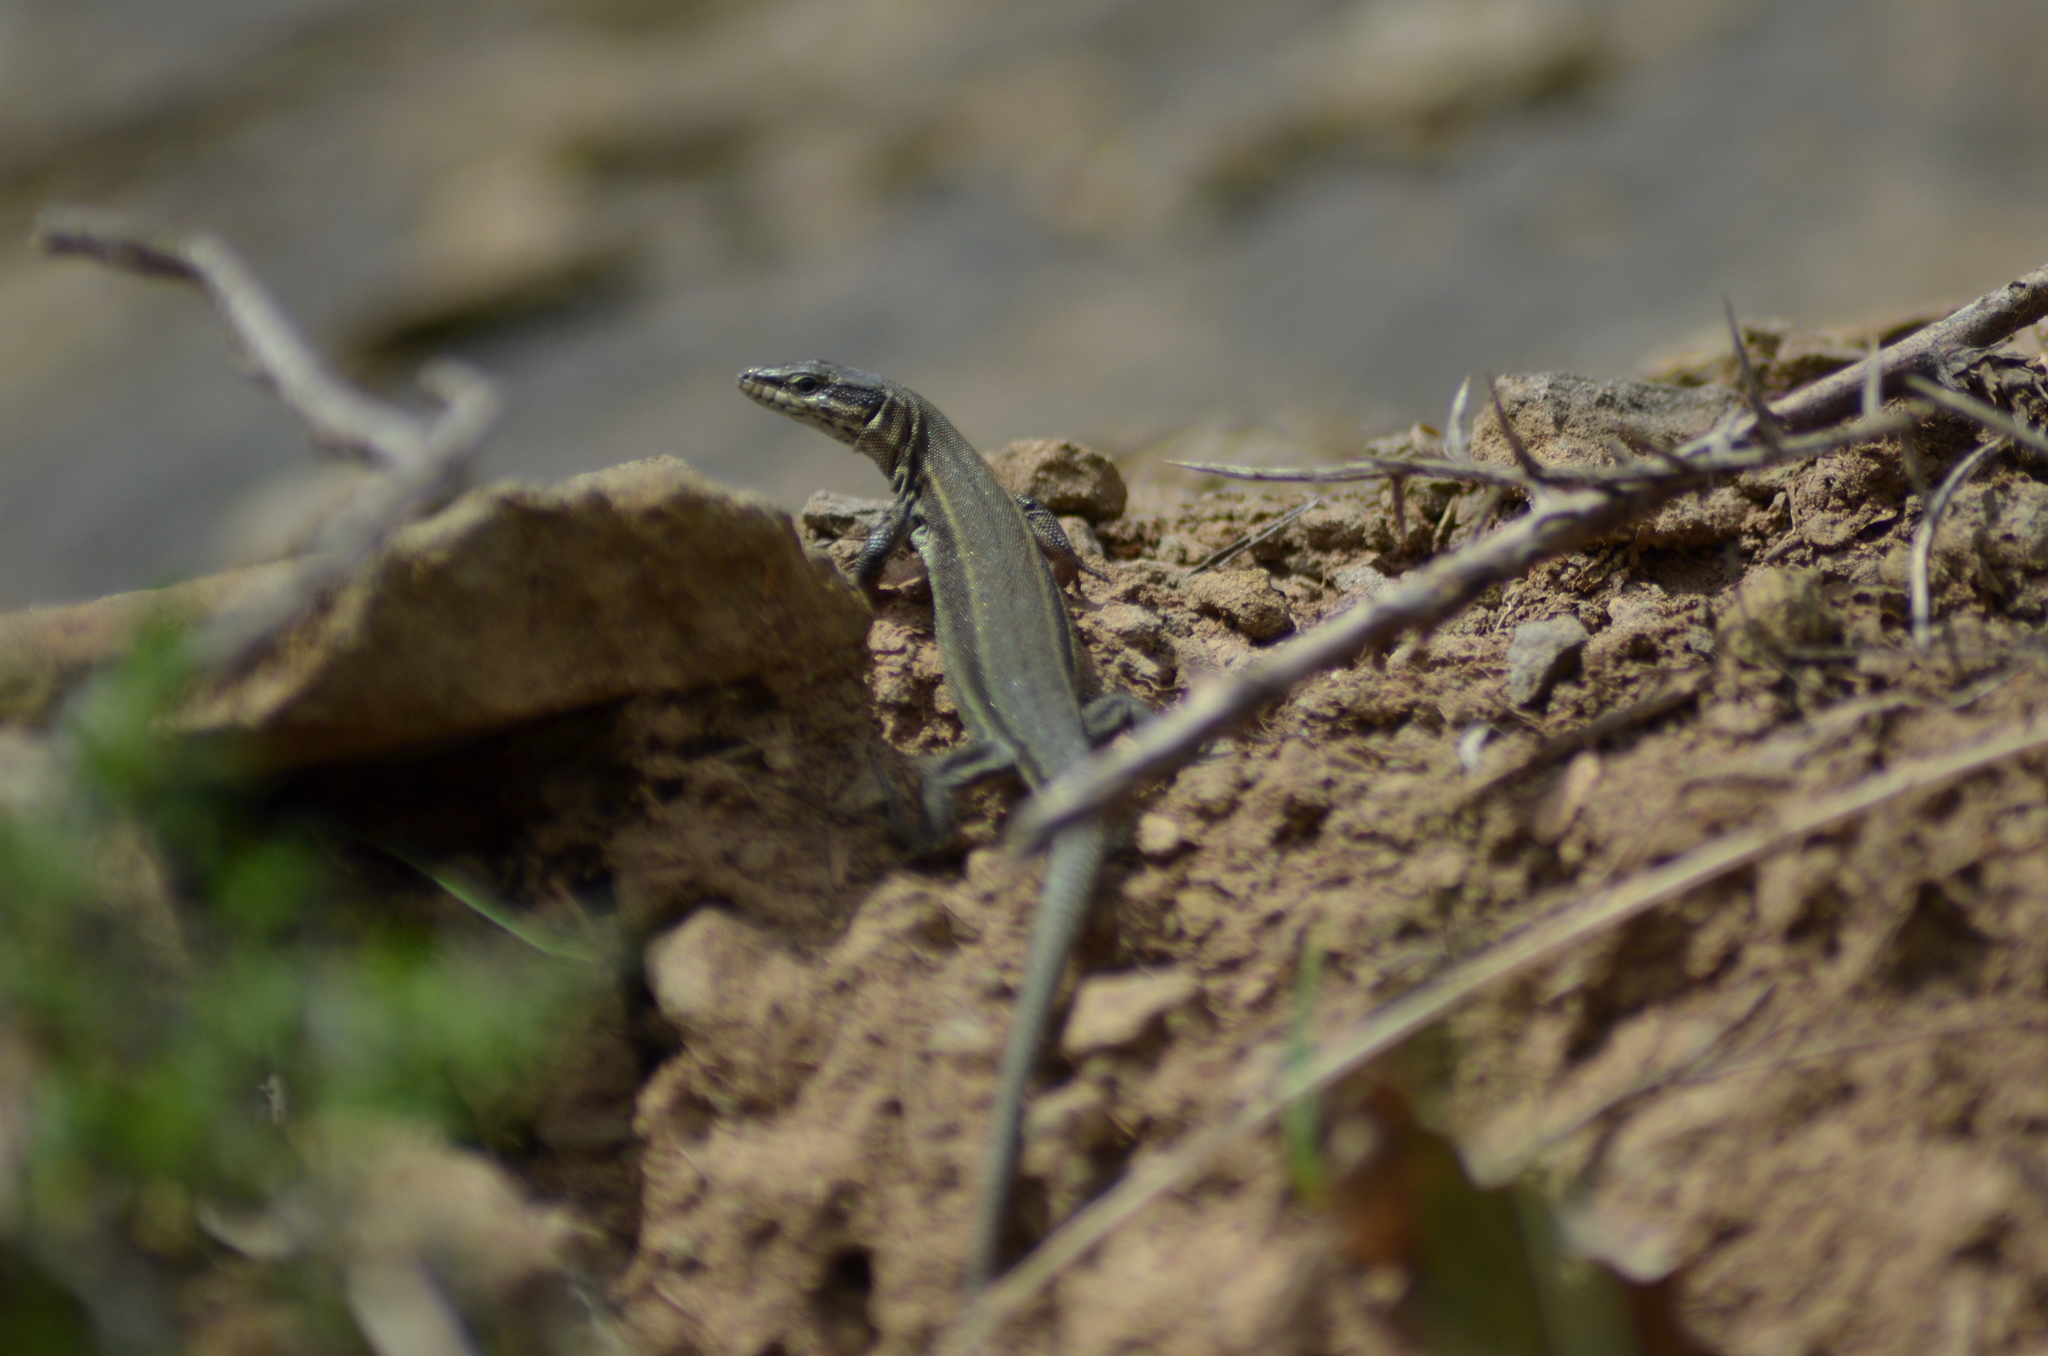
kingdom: Animalia
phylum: Chordata
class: Squamata
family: Lacertidae
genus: Podarcis
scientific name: Podarcis liolepis
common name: Catalonian wall lizard
